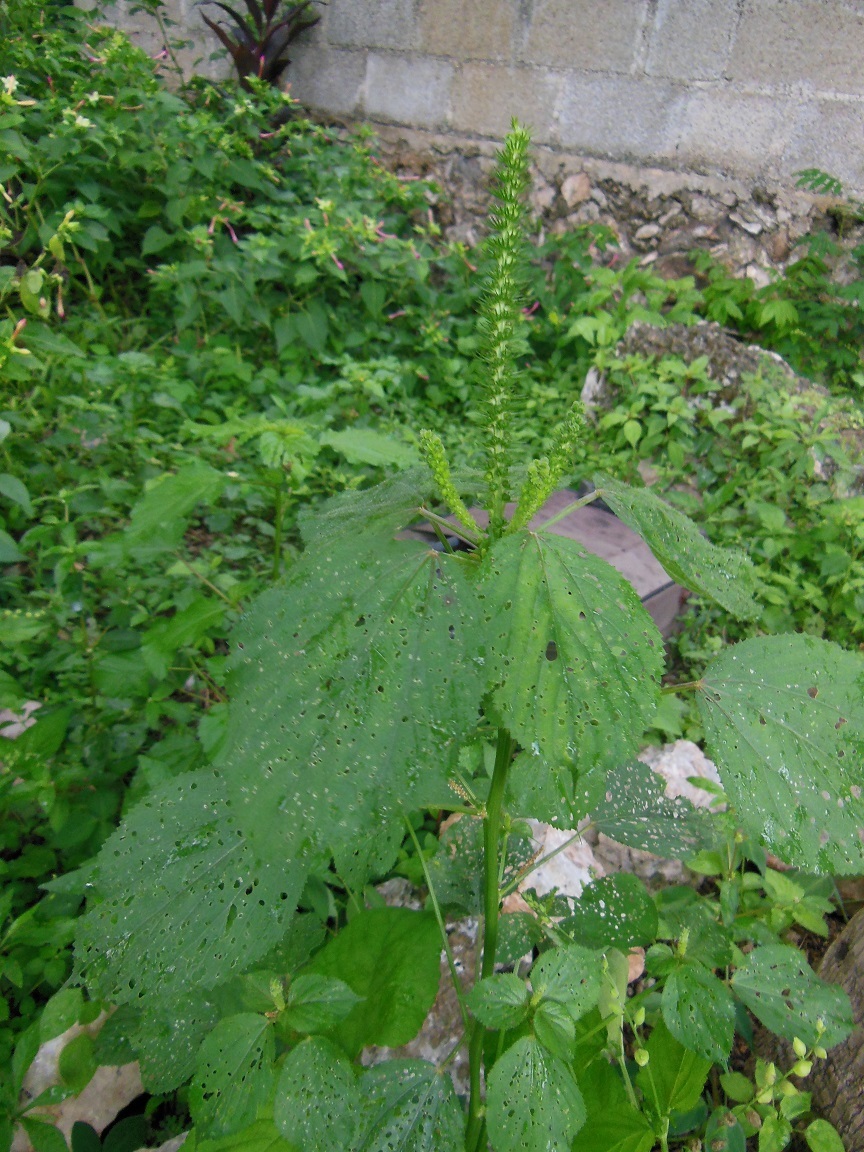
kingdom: Plantae
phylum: Tracheophyta
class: Magnoliopsida
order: Malpighiales
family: Euphorbiaceae
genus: Acalypha
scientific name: Acalypha setosa
